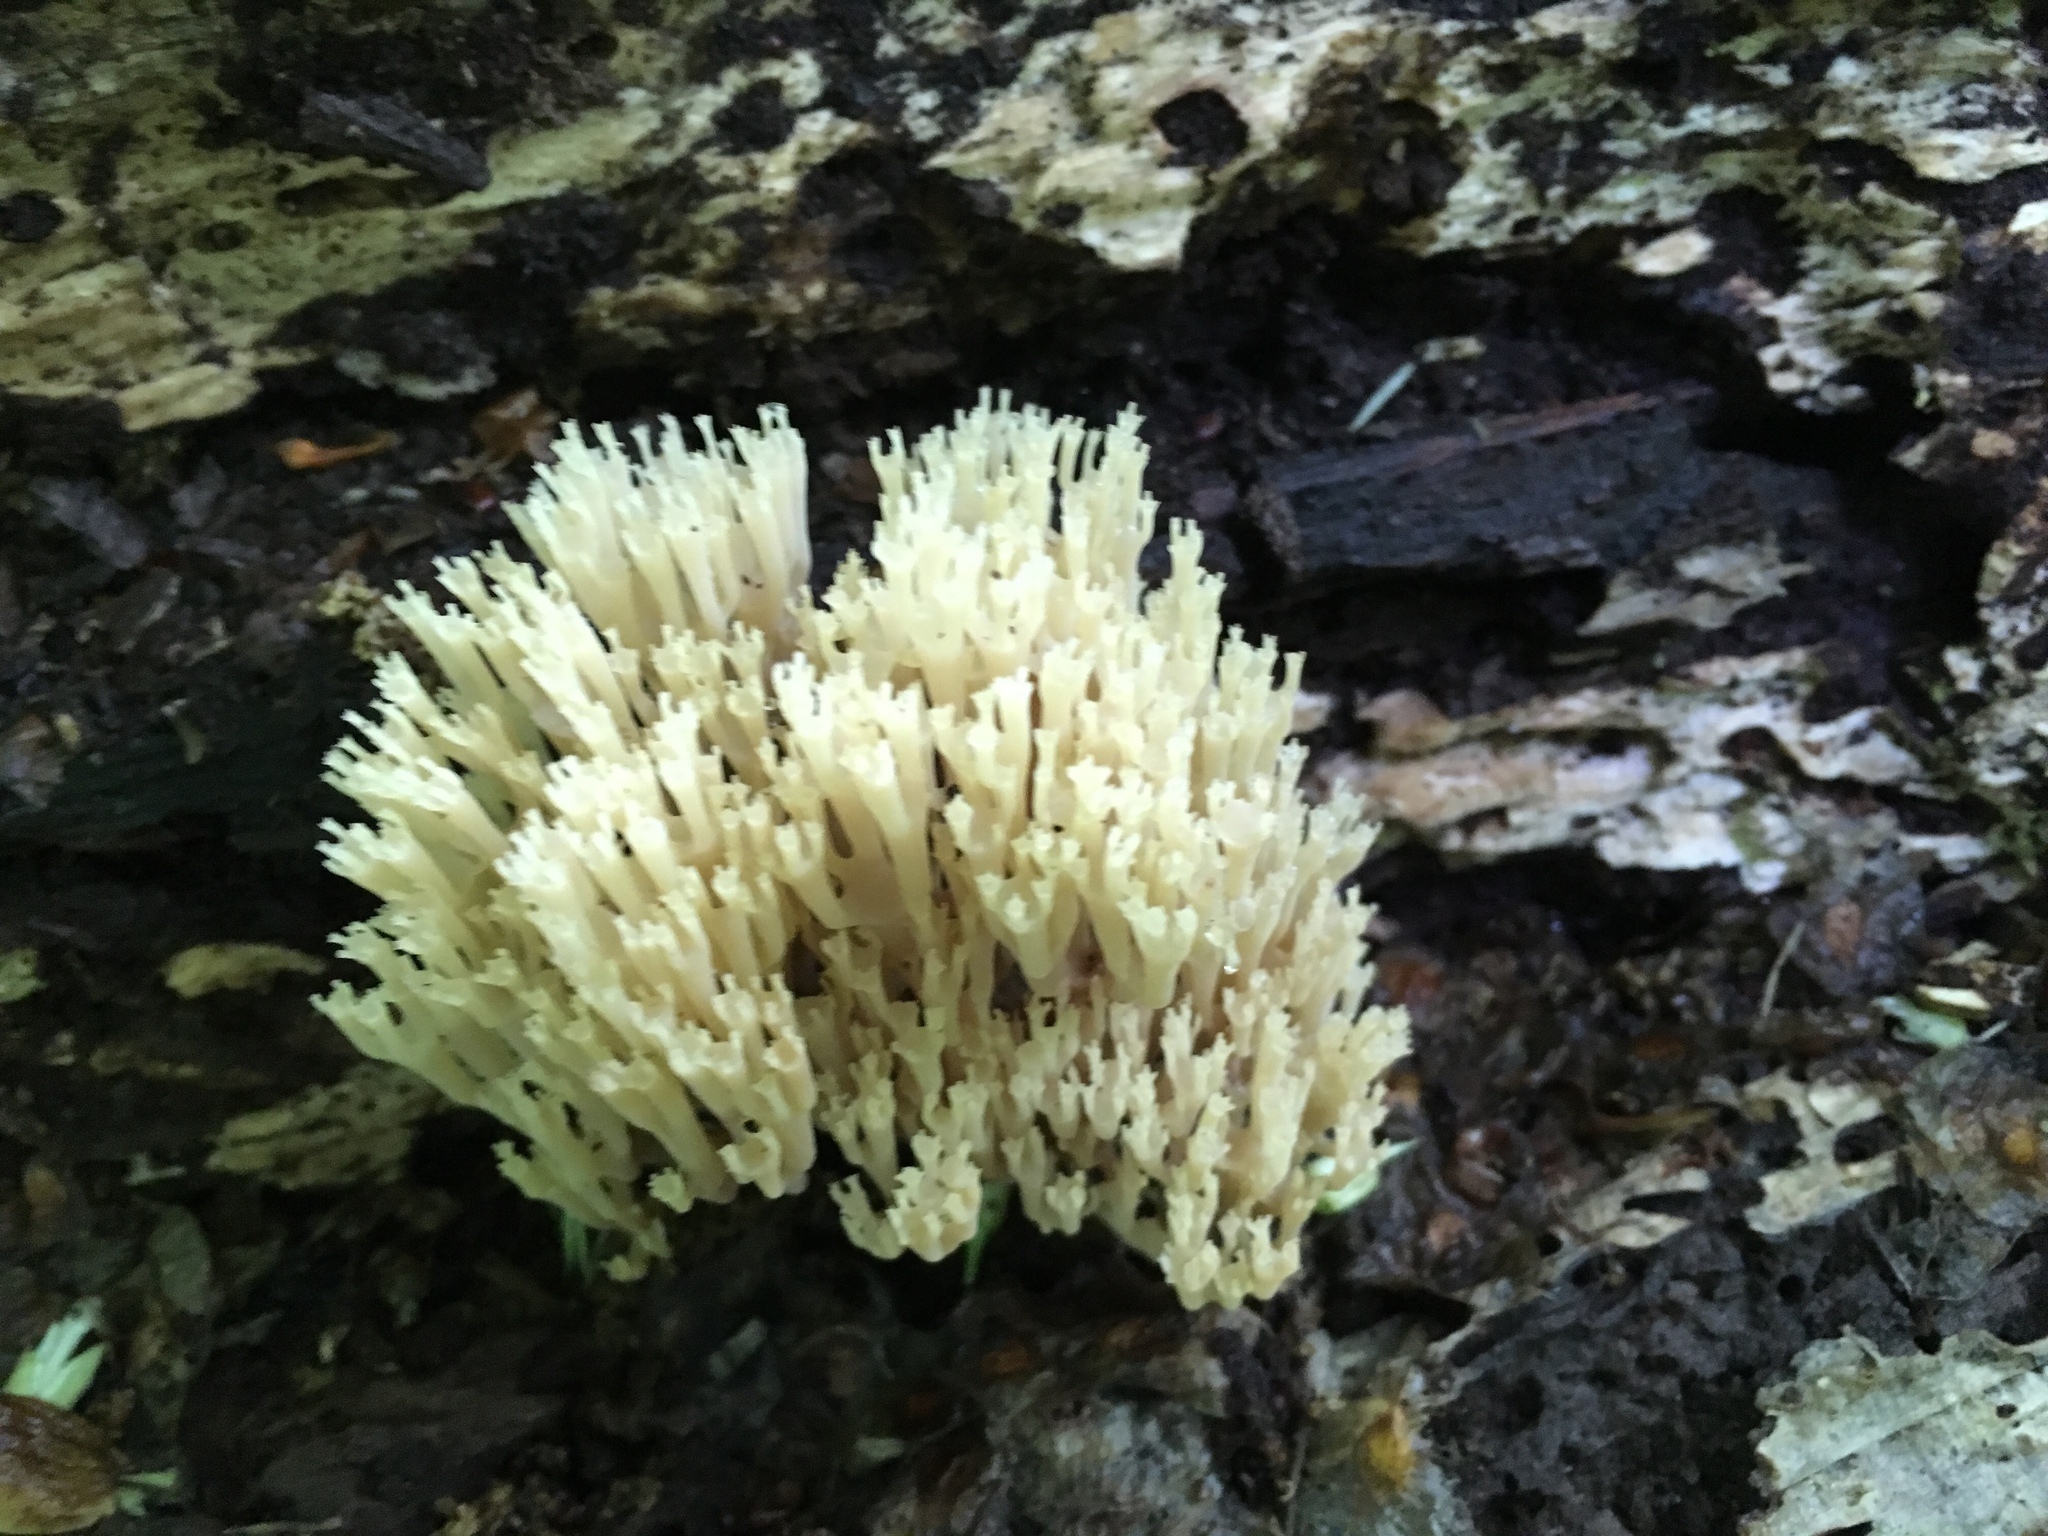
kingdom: Fungi
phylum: Basidiomycota
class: Agaricomycetes
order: Russulales
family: Auriscalpiaceae
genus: Artomyces
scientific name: Artomyces pyxidatus
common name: Crown-tipped coral fungus
